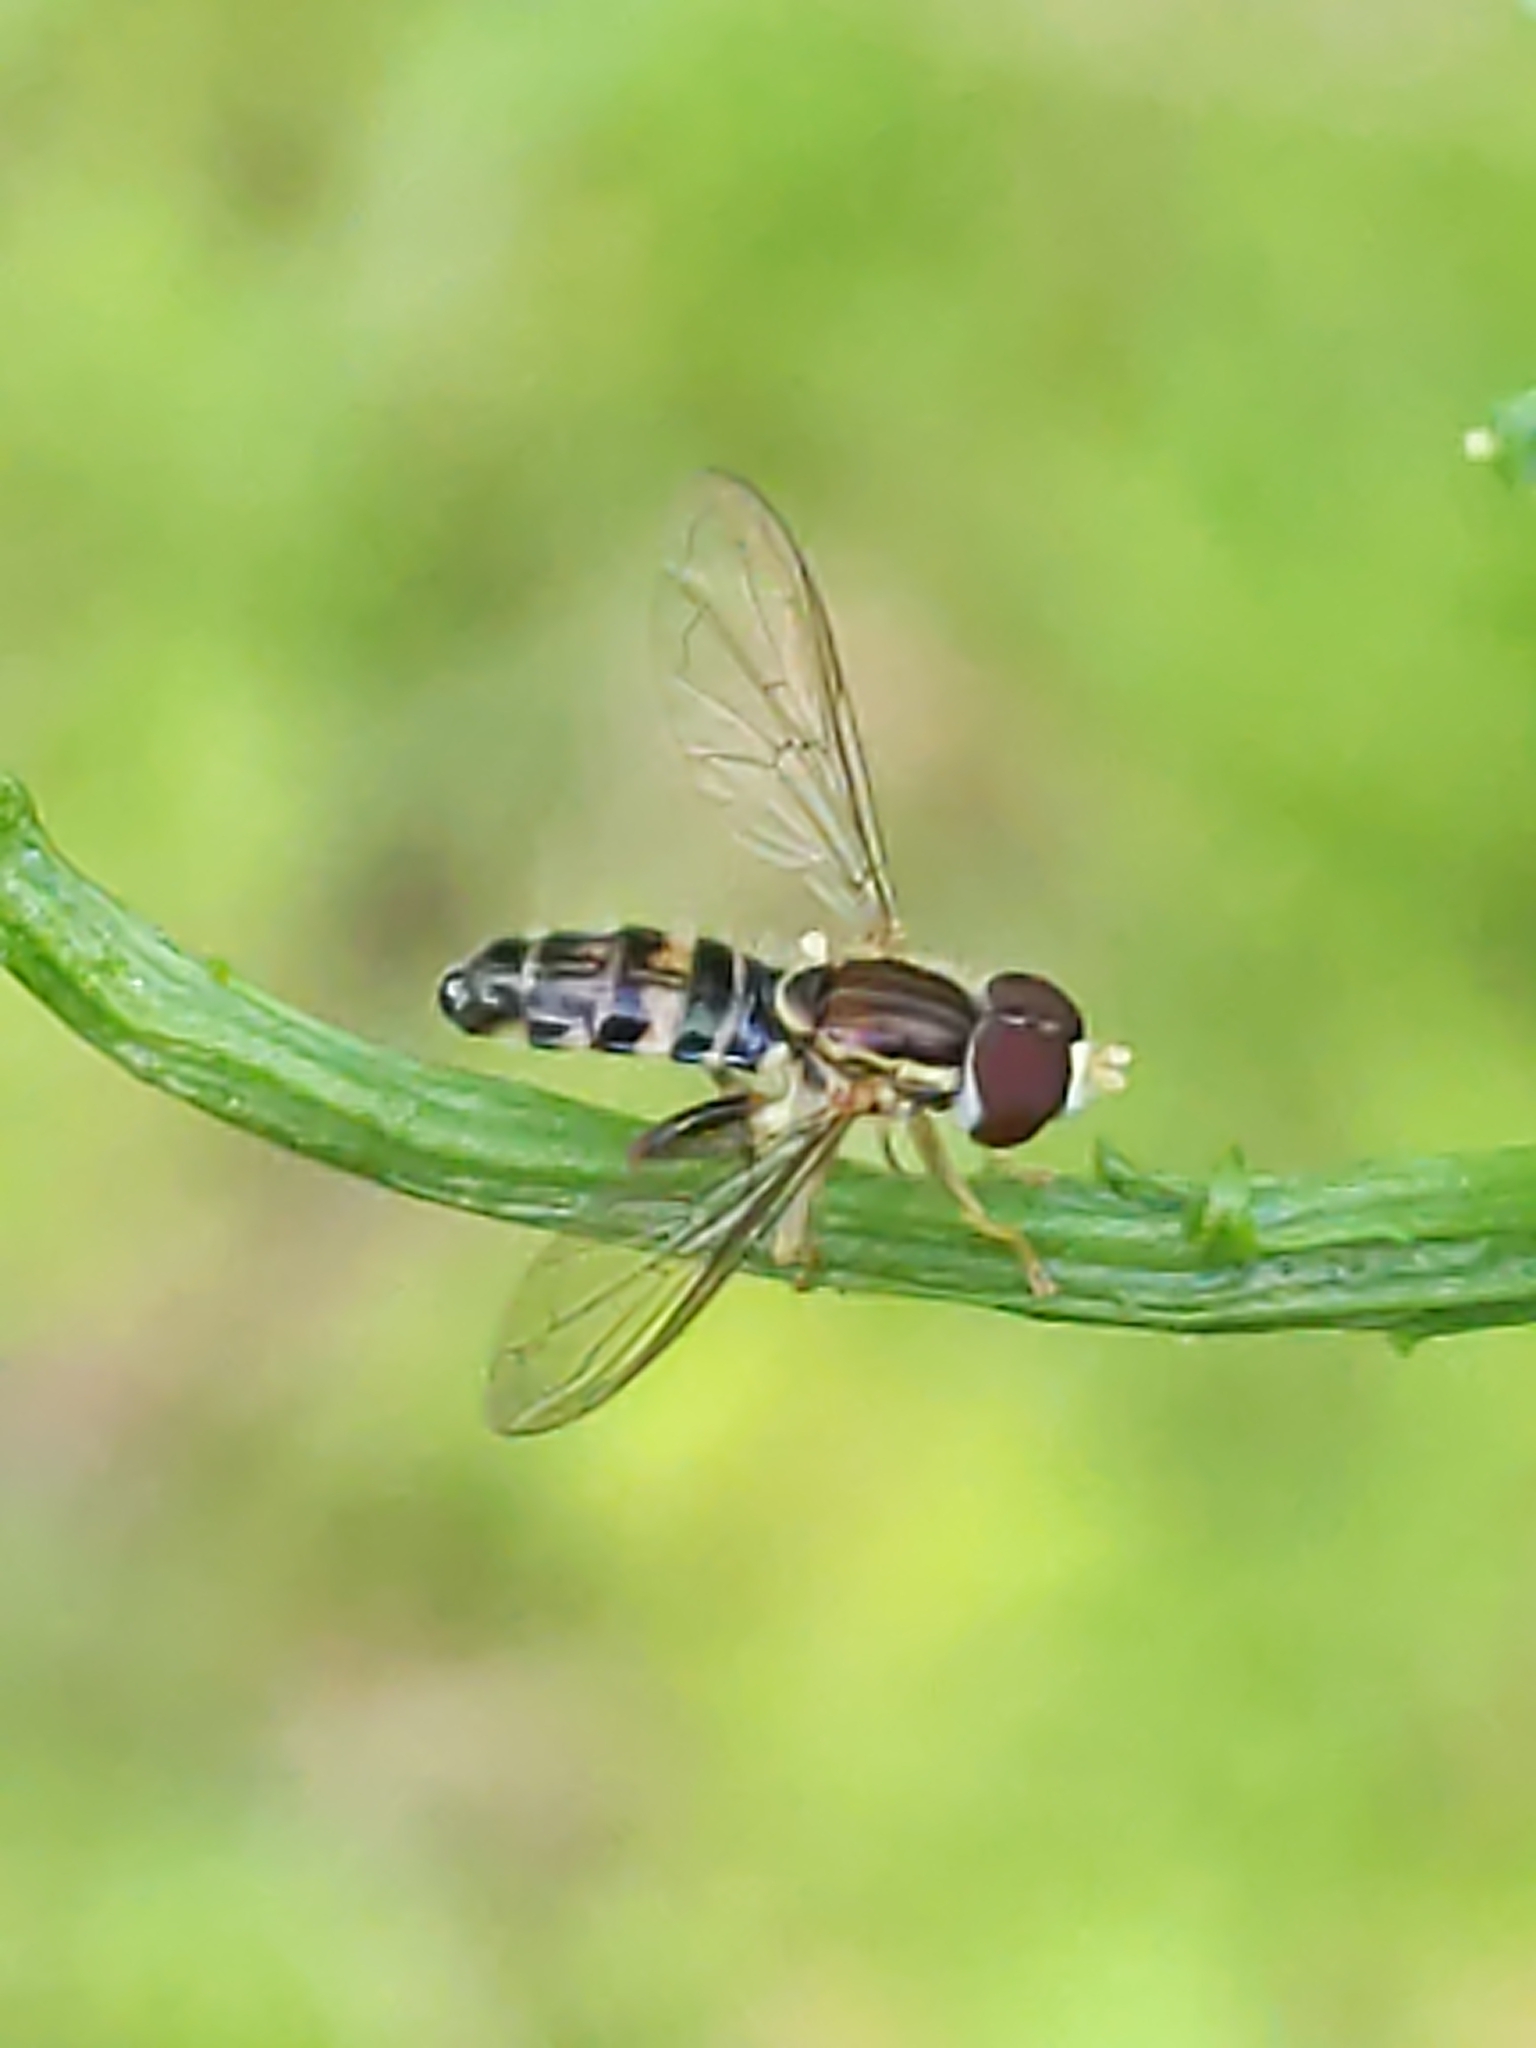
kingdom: Animalia
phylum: Arthropoda
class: Insecta
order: Diptera
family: Syrphidae
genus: Toxomerus
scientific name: Toxomerus geminatus
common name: Eastern calligrapher
